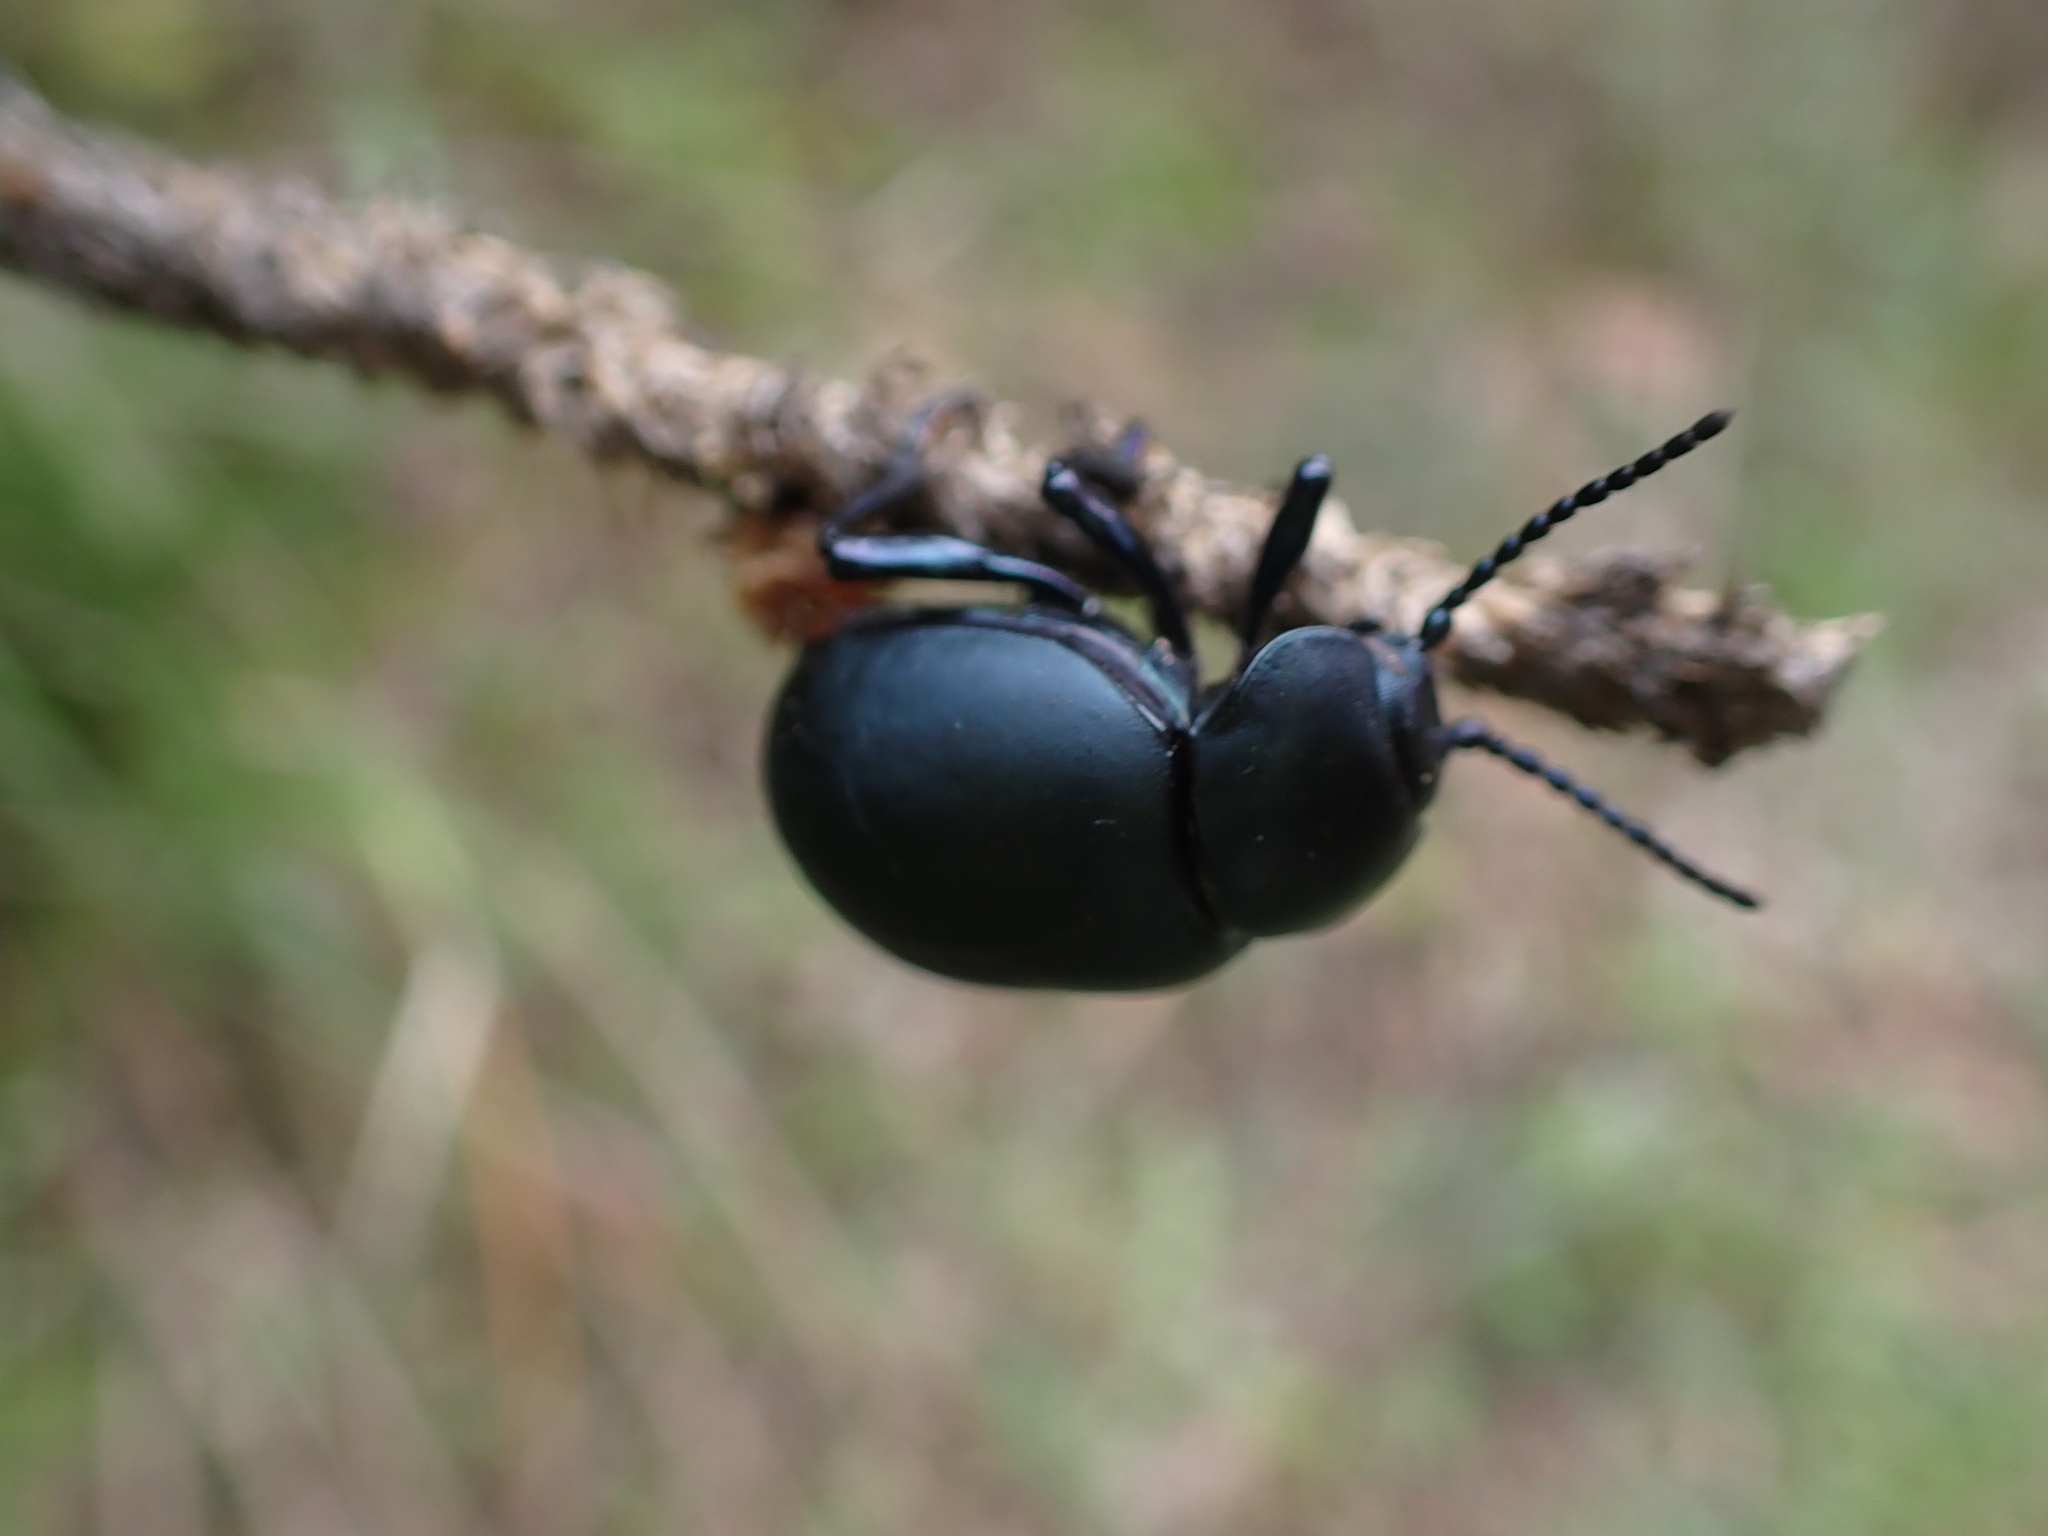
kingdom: Animalia
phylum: Arthropoda
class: Insecta
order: Coleoptera
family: Chrysomelidae
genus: Timarcha
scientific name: Timarcha tenebricosa
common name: Bloody-nosed beetle
